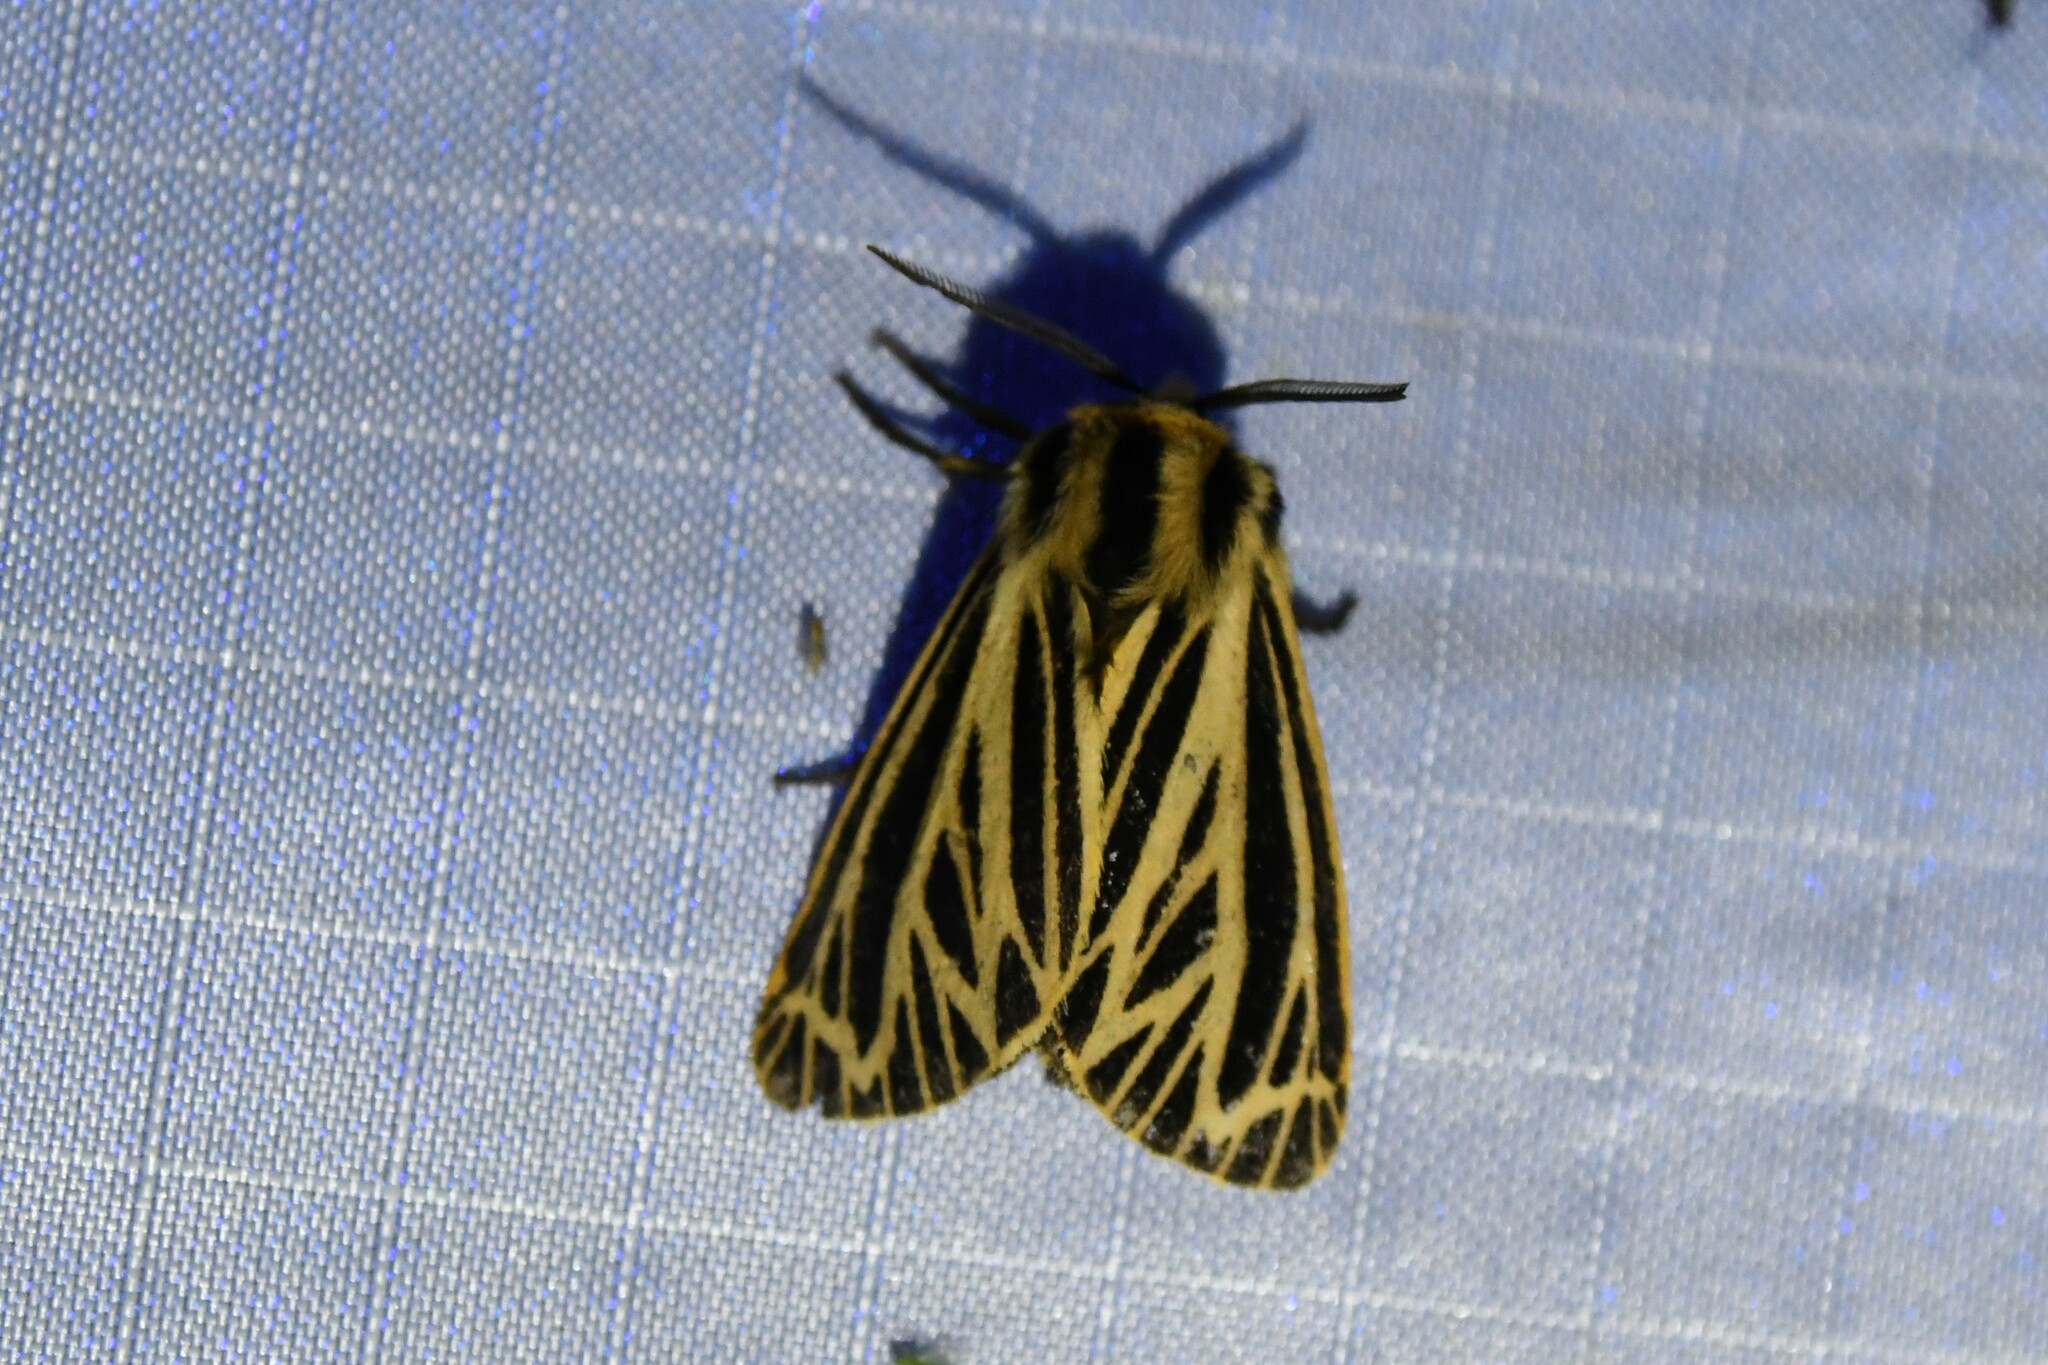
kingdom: Animalia
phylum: Arthropoda
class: Insecta
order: Lepidoptera
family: Erebidae
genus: Grammia
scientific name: Grammia virguncula
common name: Little tiger moth
